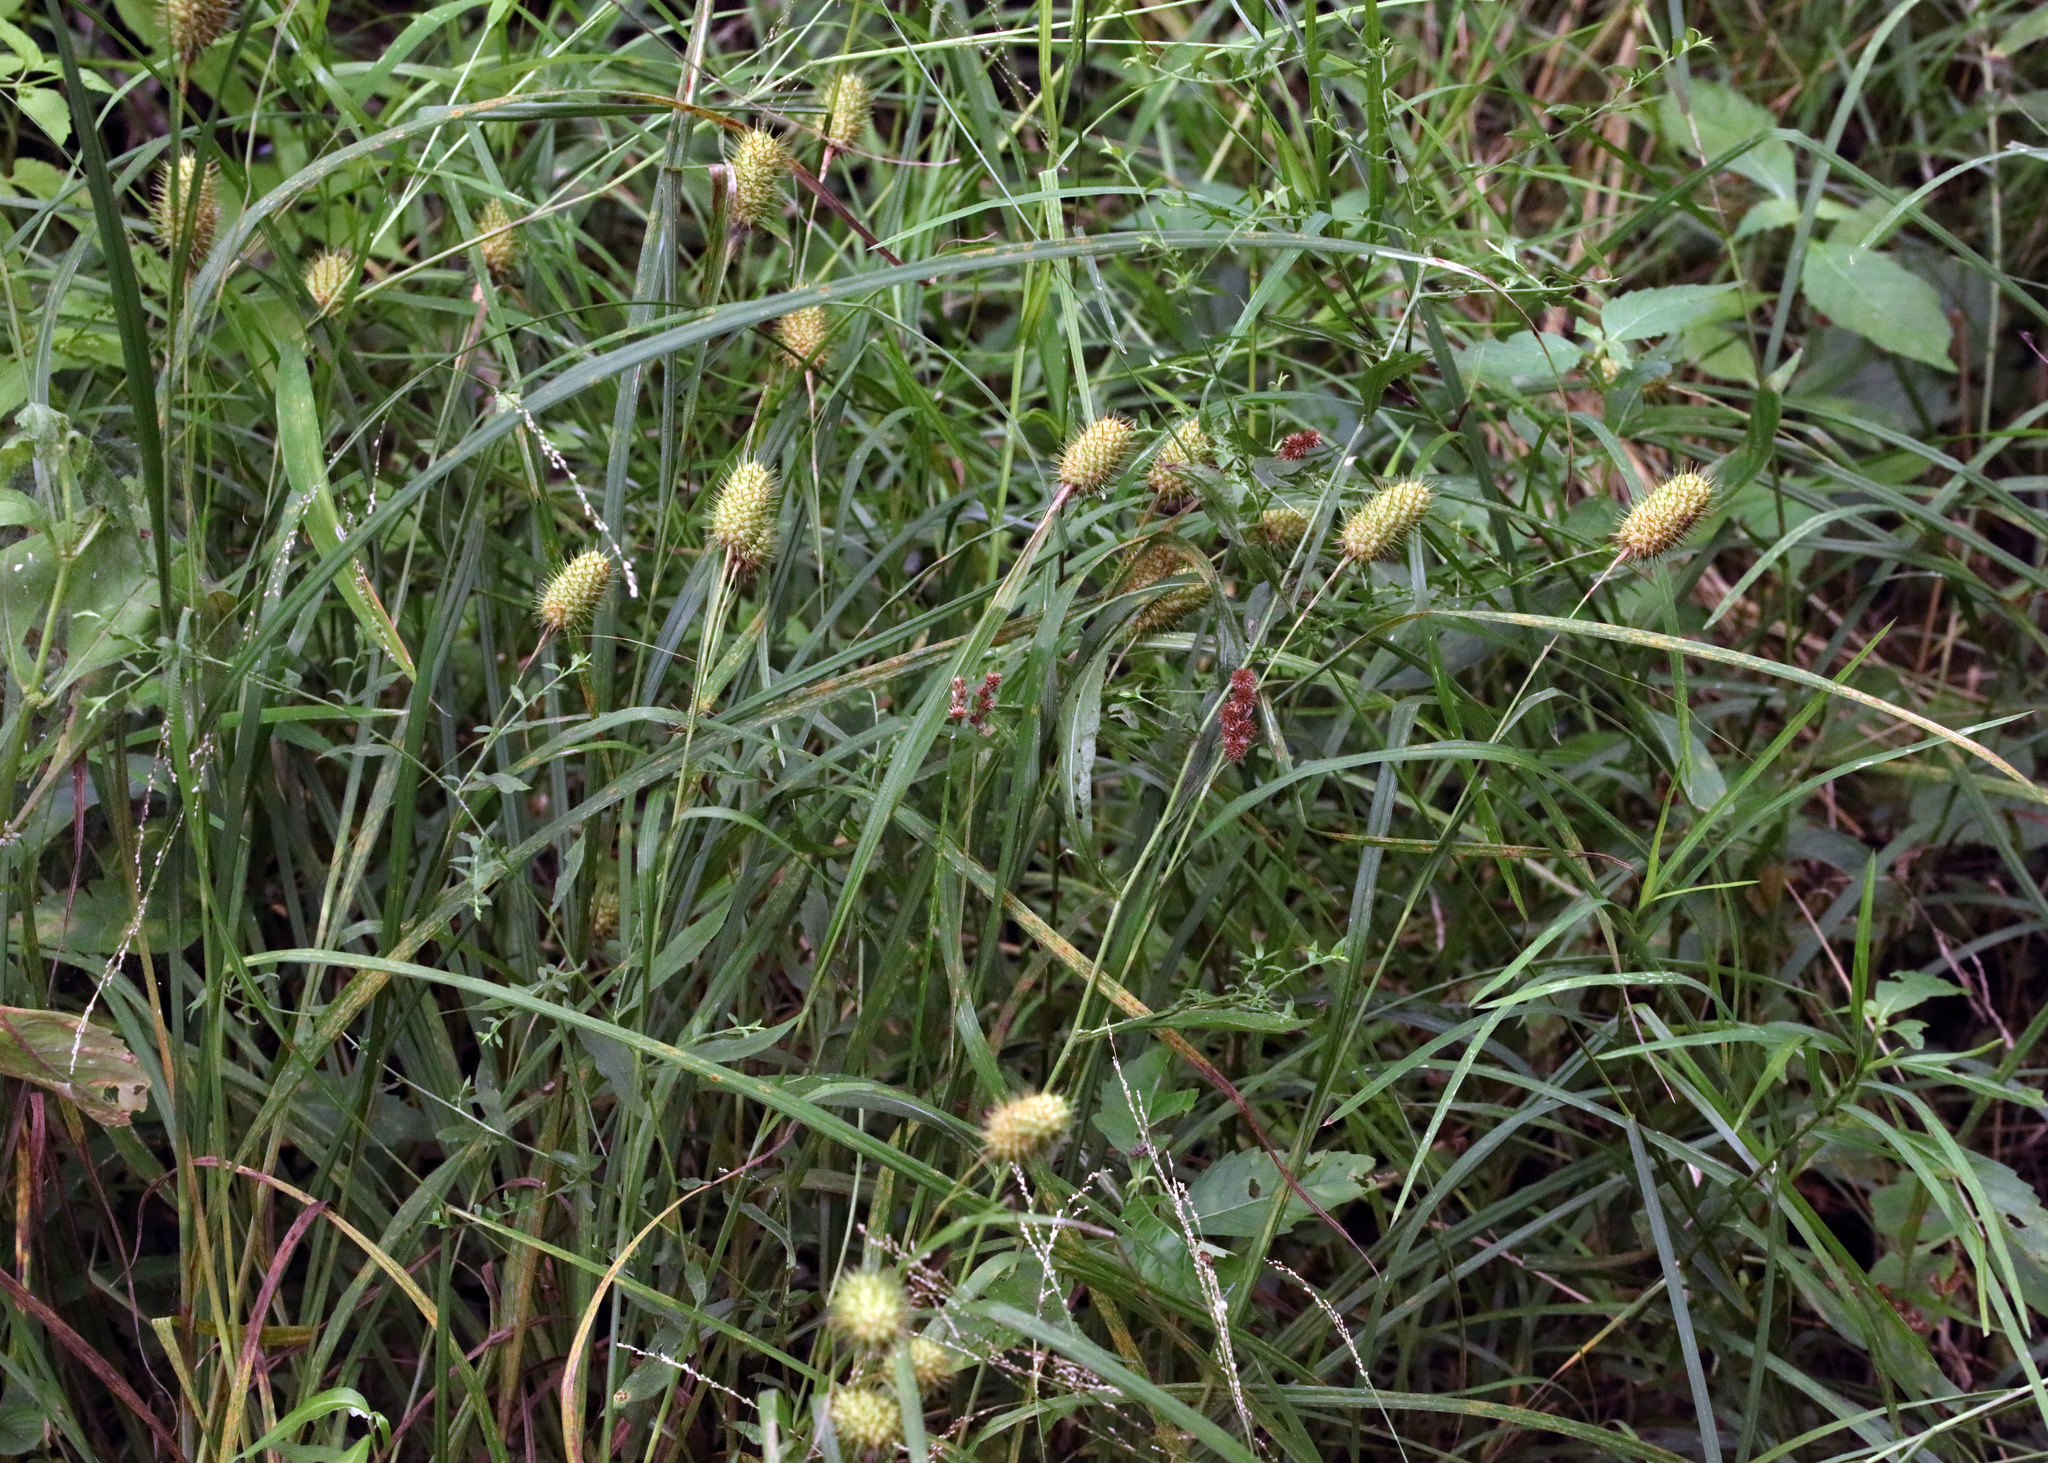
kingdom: Plantae
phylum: Tracheophyta
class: Liliopsida
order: Poales
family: Cyperaceae
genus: Carex
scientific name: Carex squarrosa
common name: Narrow-leaved cattail sedge
